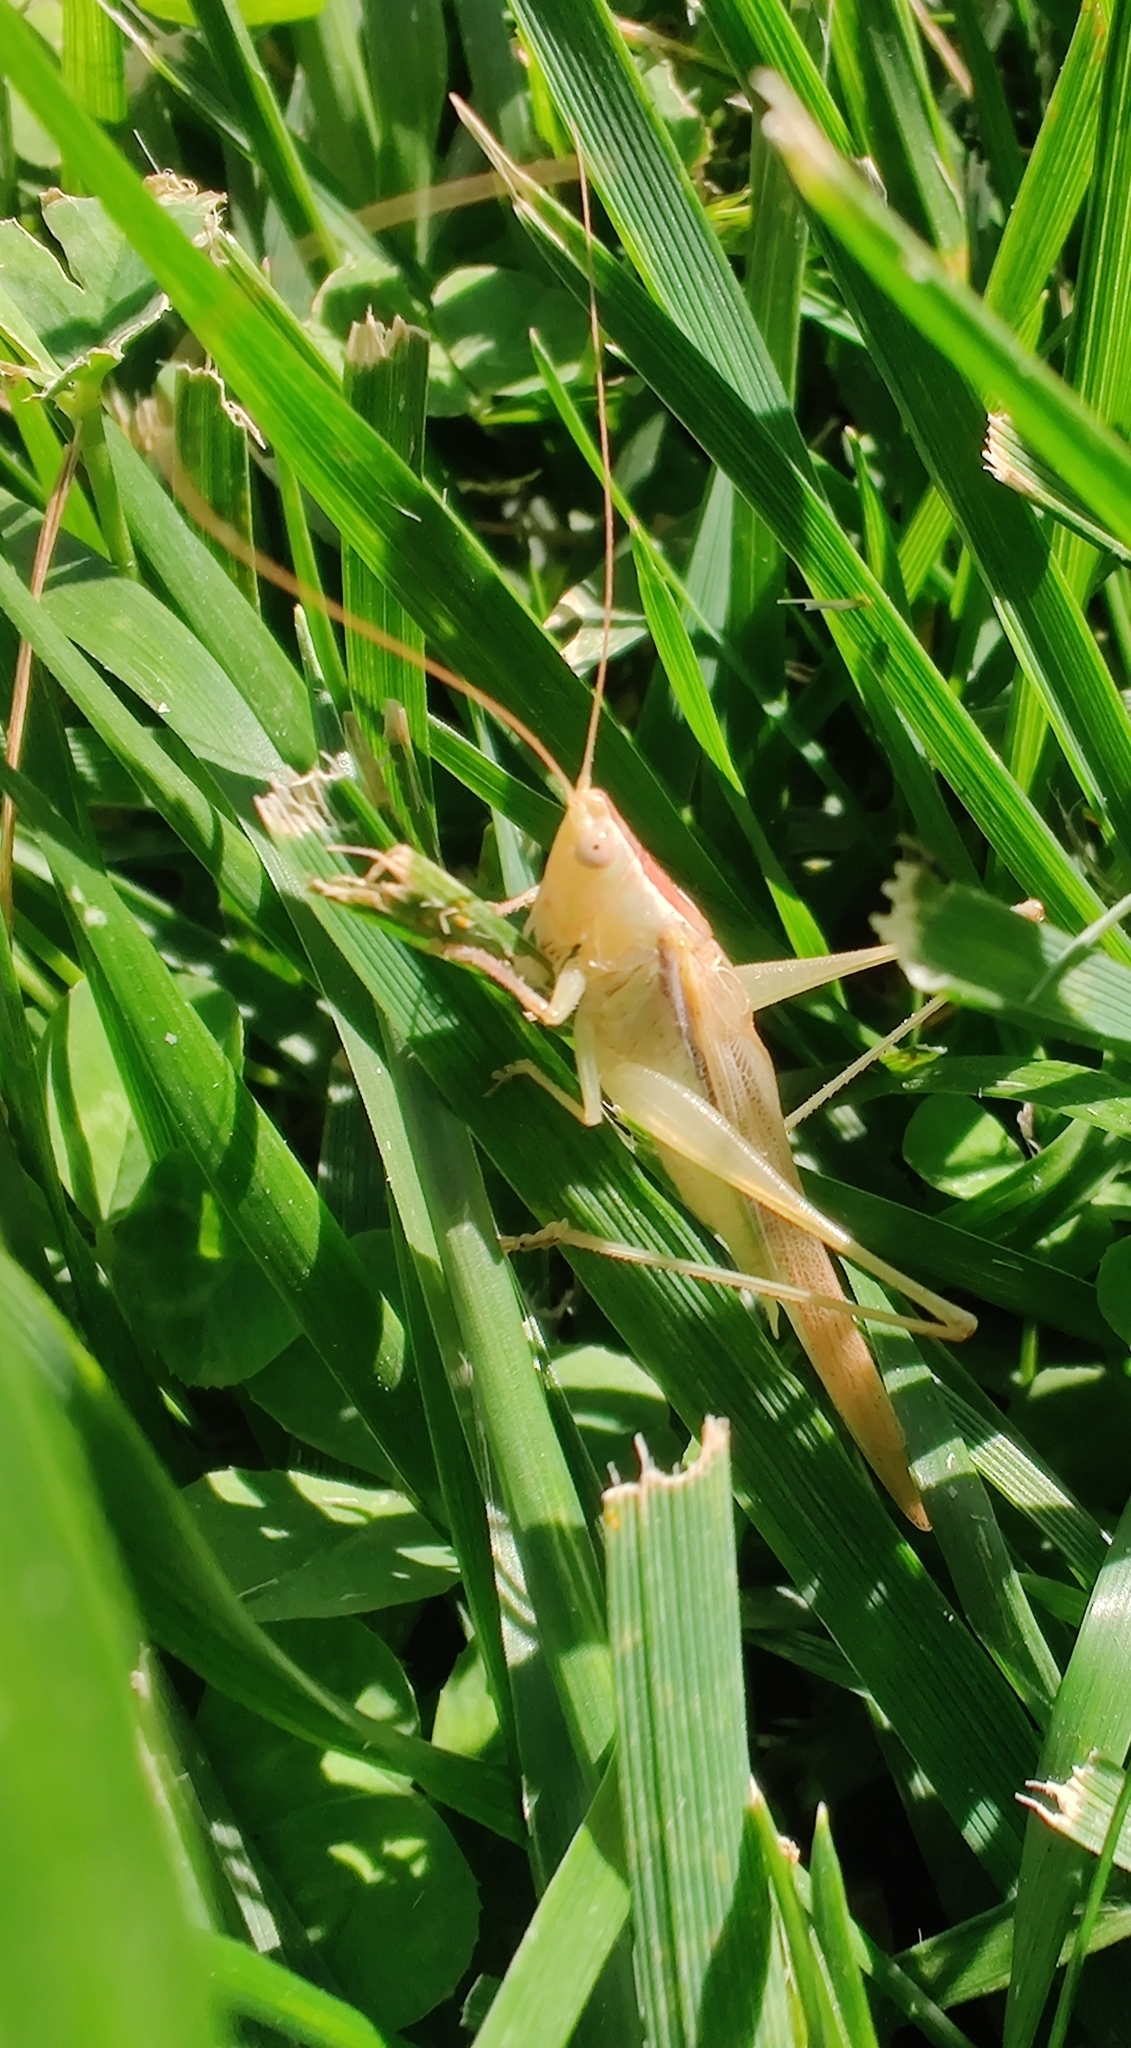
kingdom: Animalia
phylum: Arthropoda
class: Insecta
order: Orthoptera
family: Tettigoniidae
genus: Conocephalus
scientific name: Conocephalus upoluensis
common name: Upolu meadow katydid
